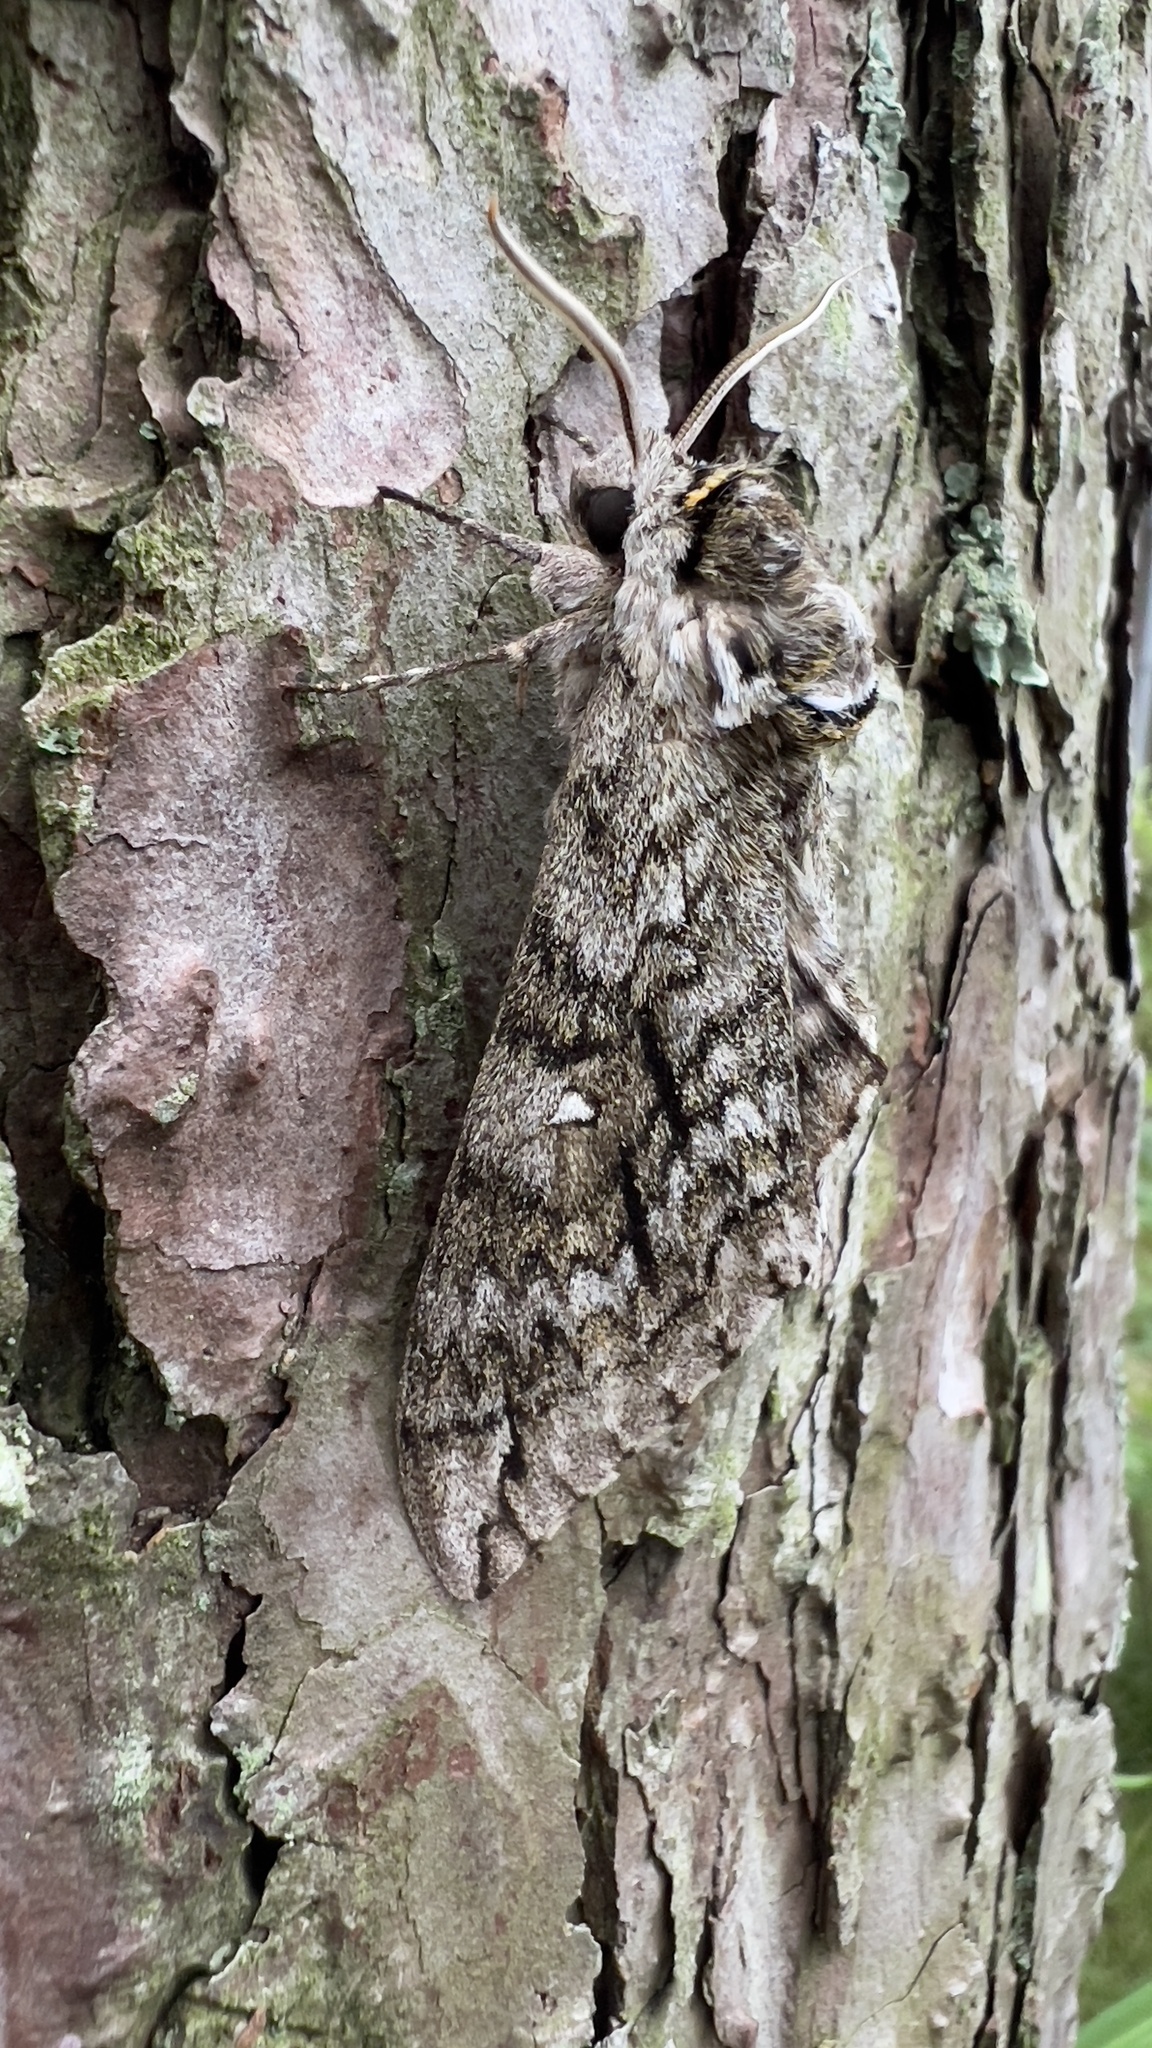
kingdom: Animalia
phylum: Arthropoda
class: Insecta
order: Lepidoptera
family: Sphingidae
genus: Ceratomia
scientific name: Ceratomia undulosa
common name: Waved sphinx
